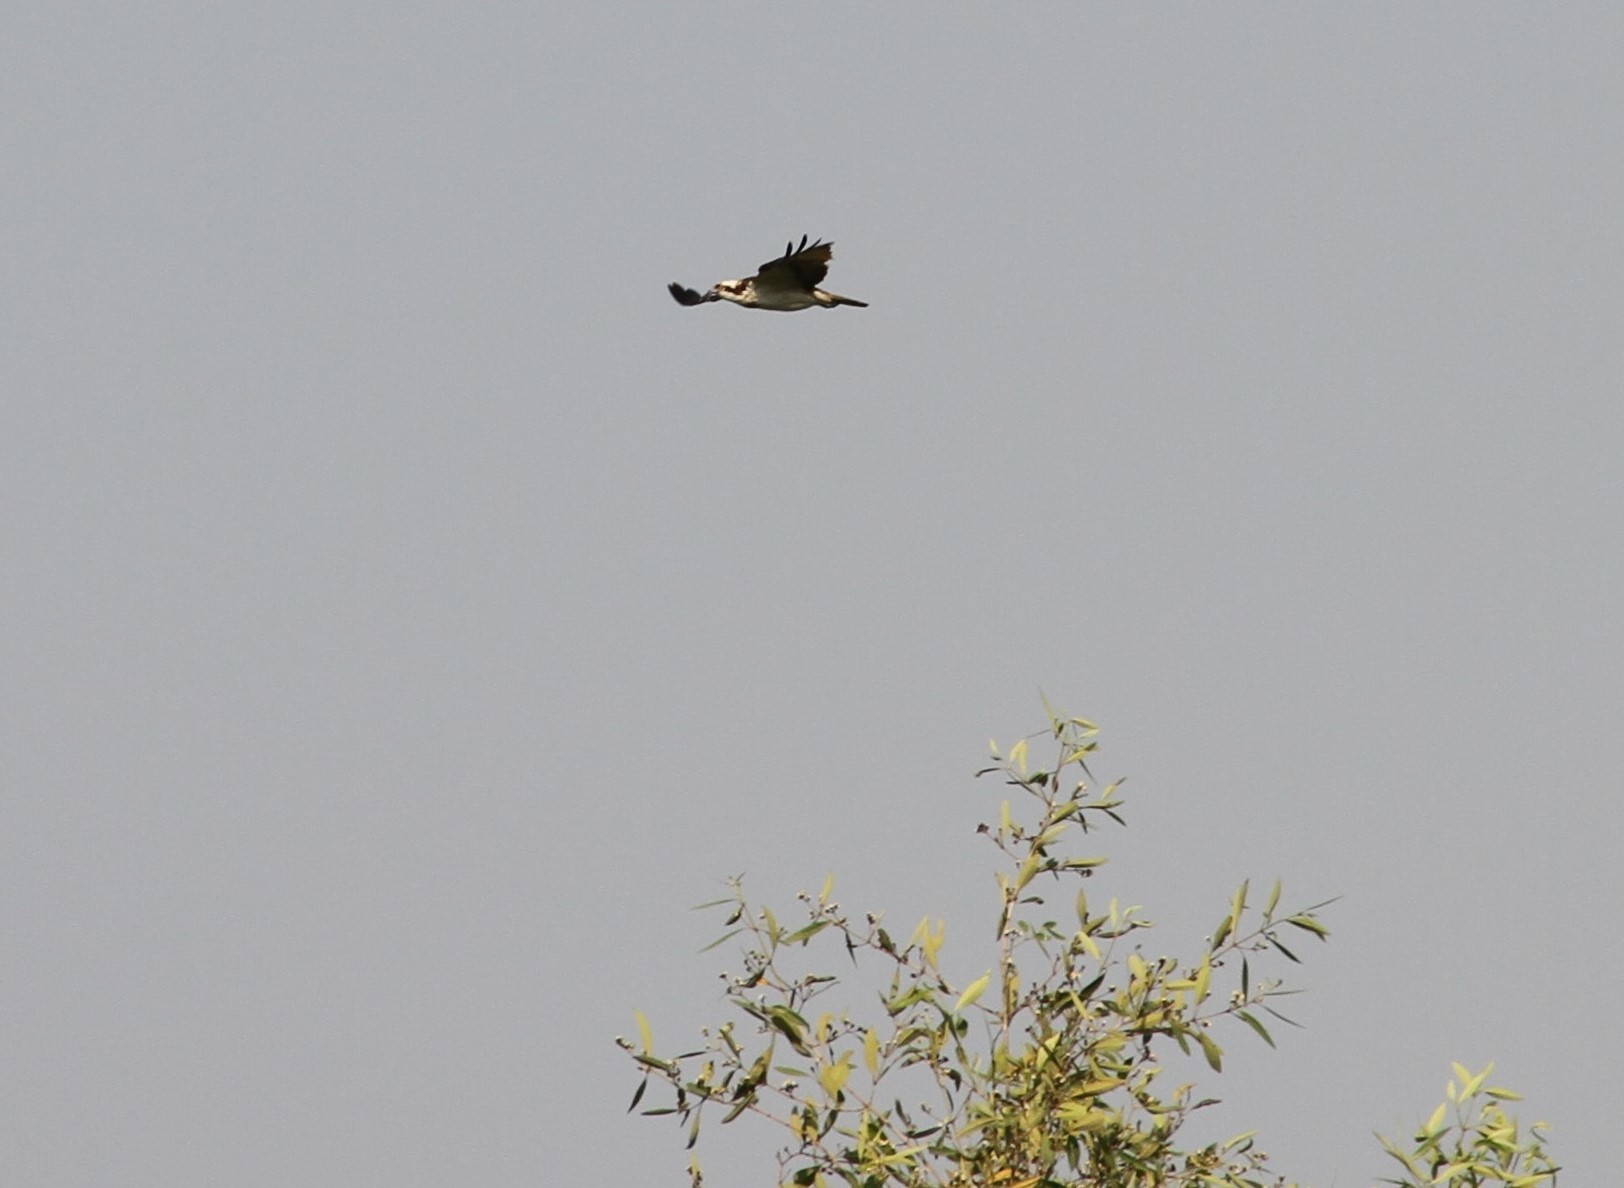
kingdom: Animalia
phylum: Chordata
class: Aves
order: Accipitriformes
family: Pandionidae
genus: Pandion
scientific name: Pandion haliaetus
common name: Osprey
